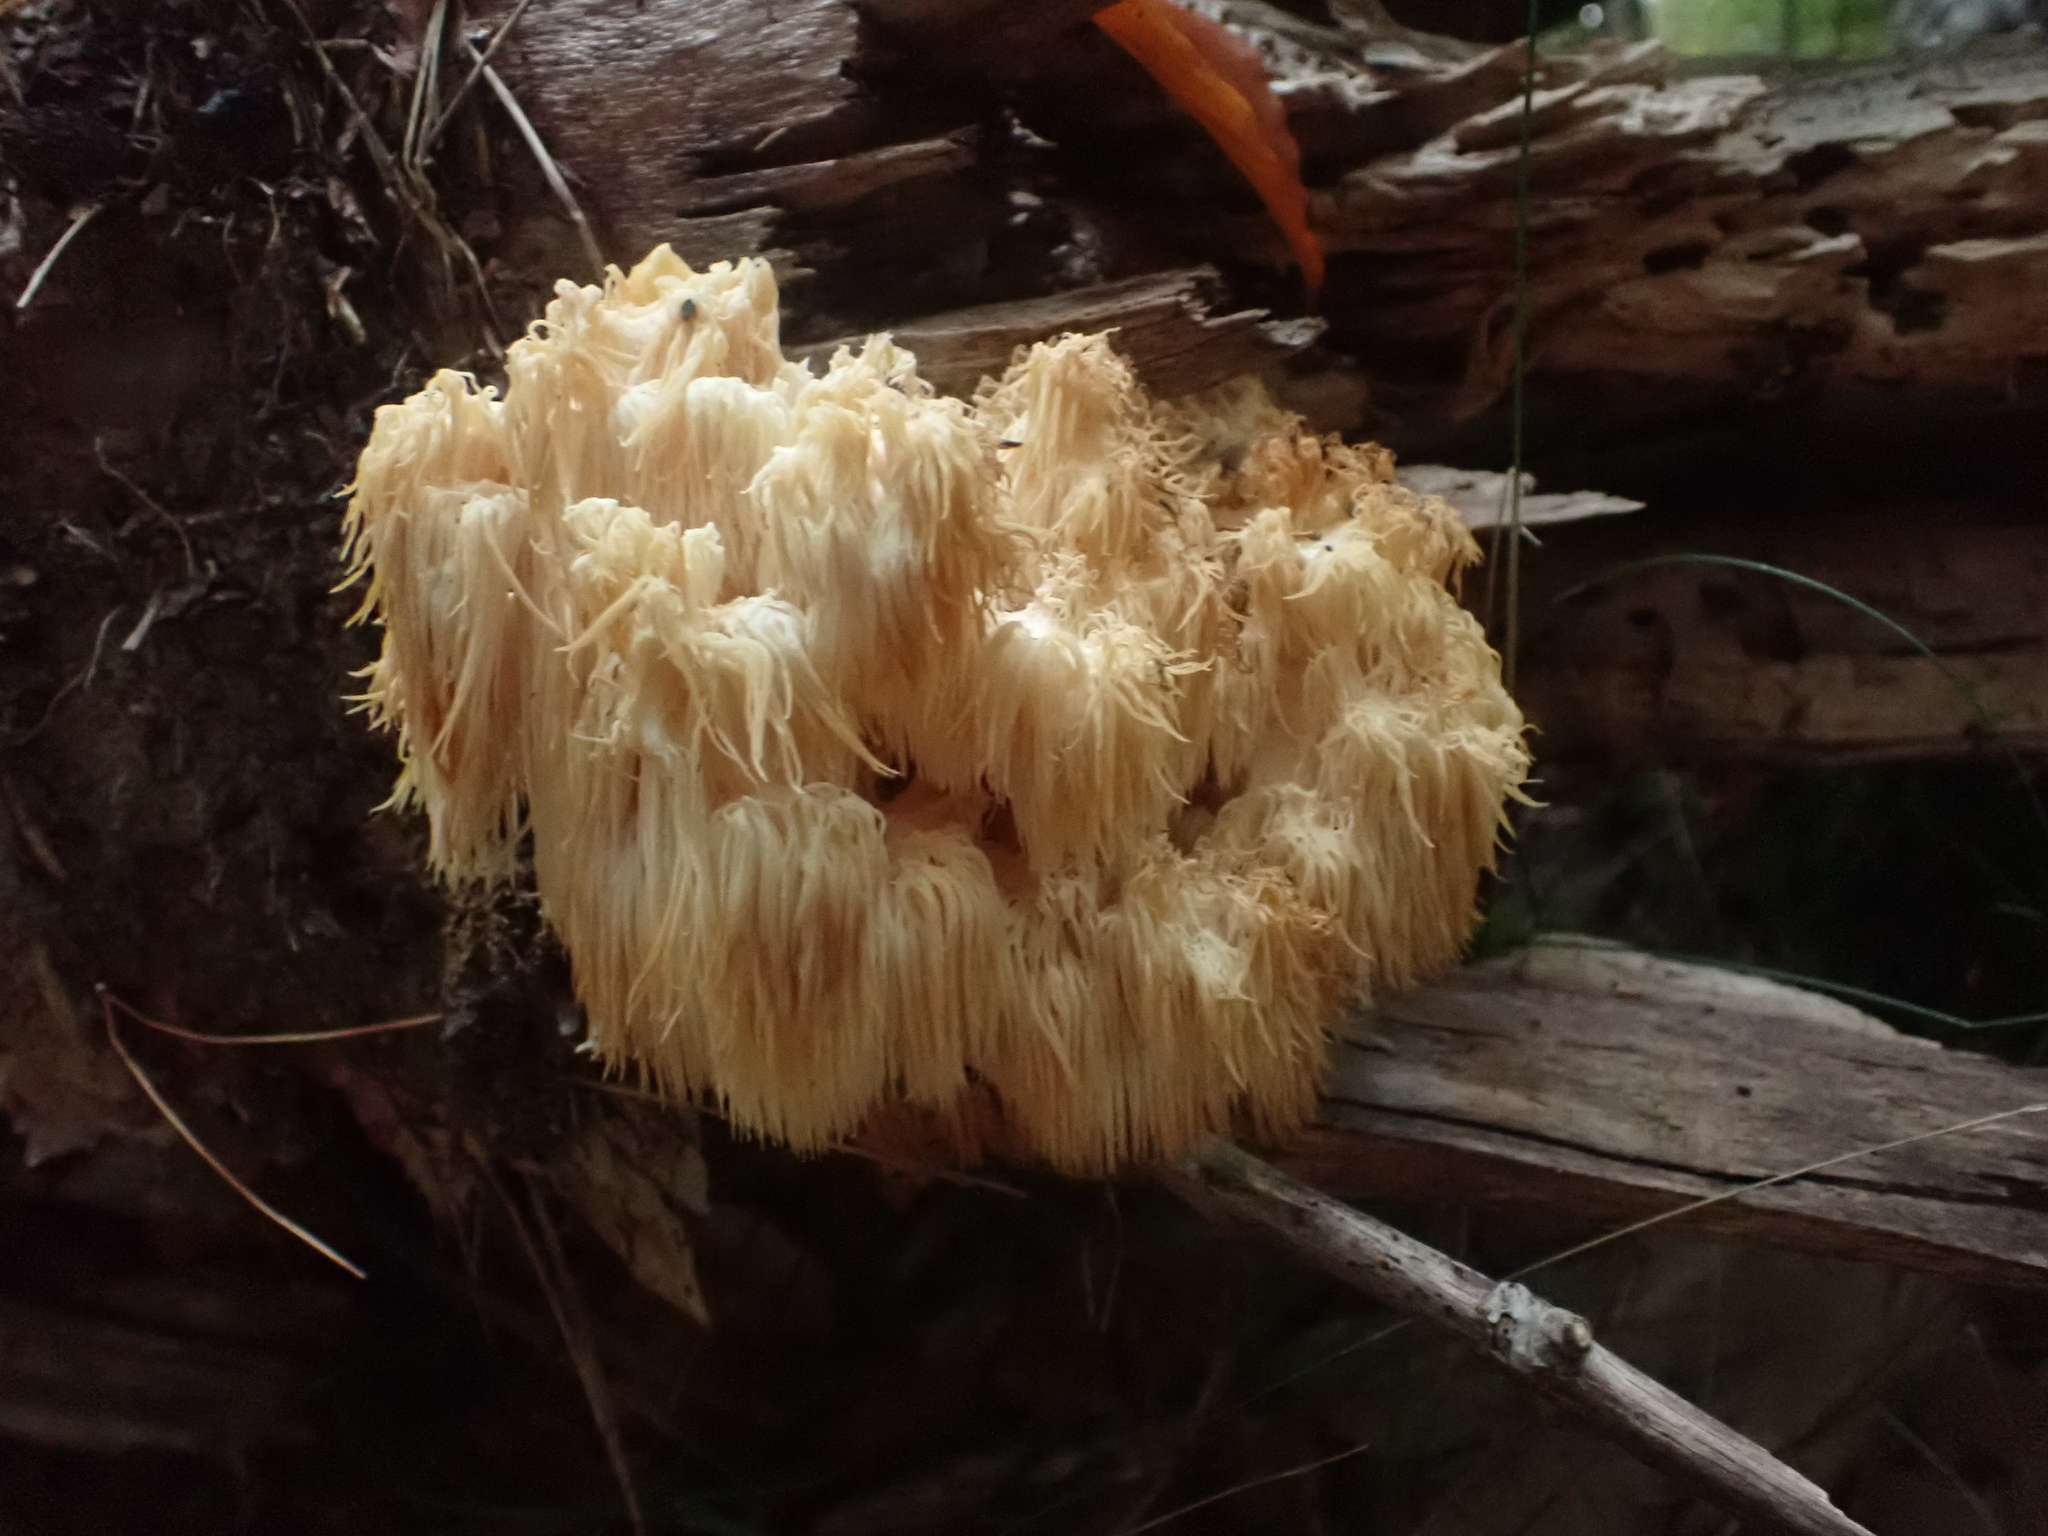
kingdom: Fungi
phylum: Basidiomycota
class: Agaricomycetes
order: Russulales
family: Hericiaceae
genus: Hericium
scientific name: Hericium americanum
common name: Bear's head tooth
